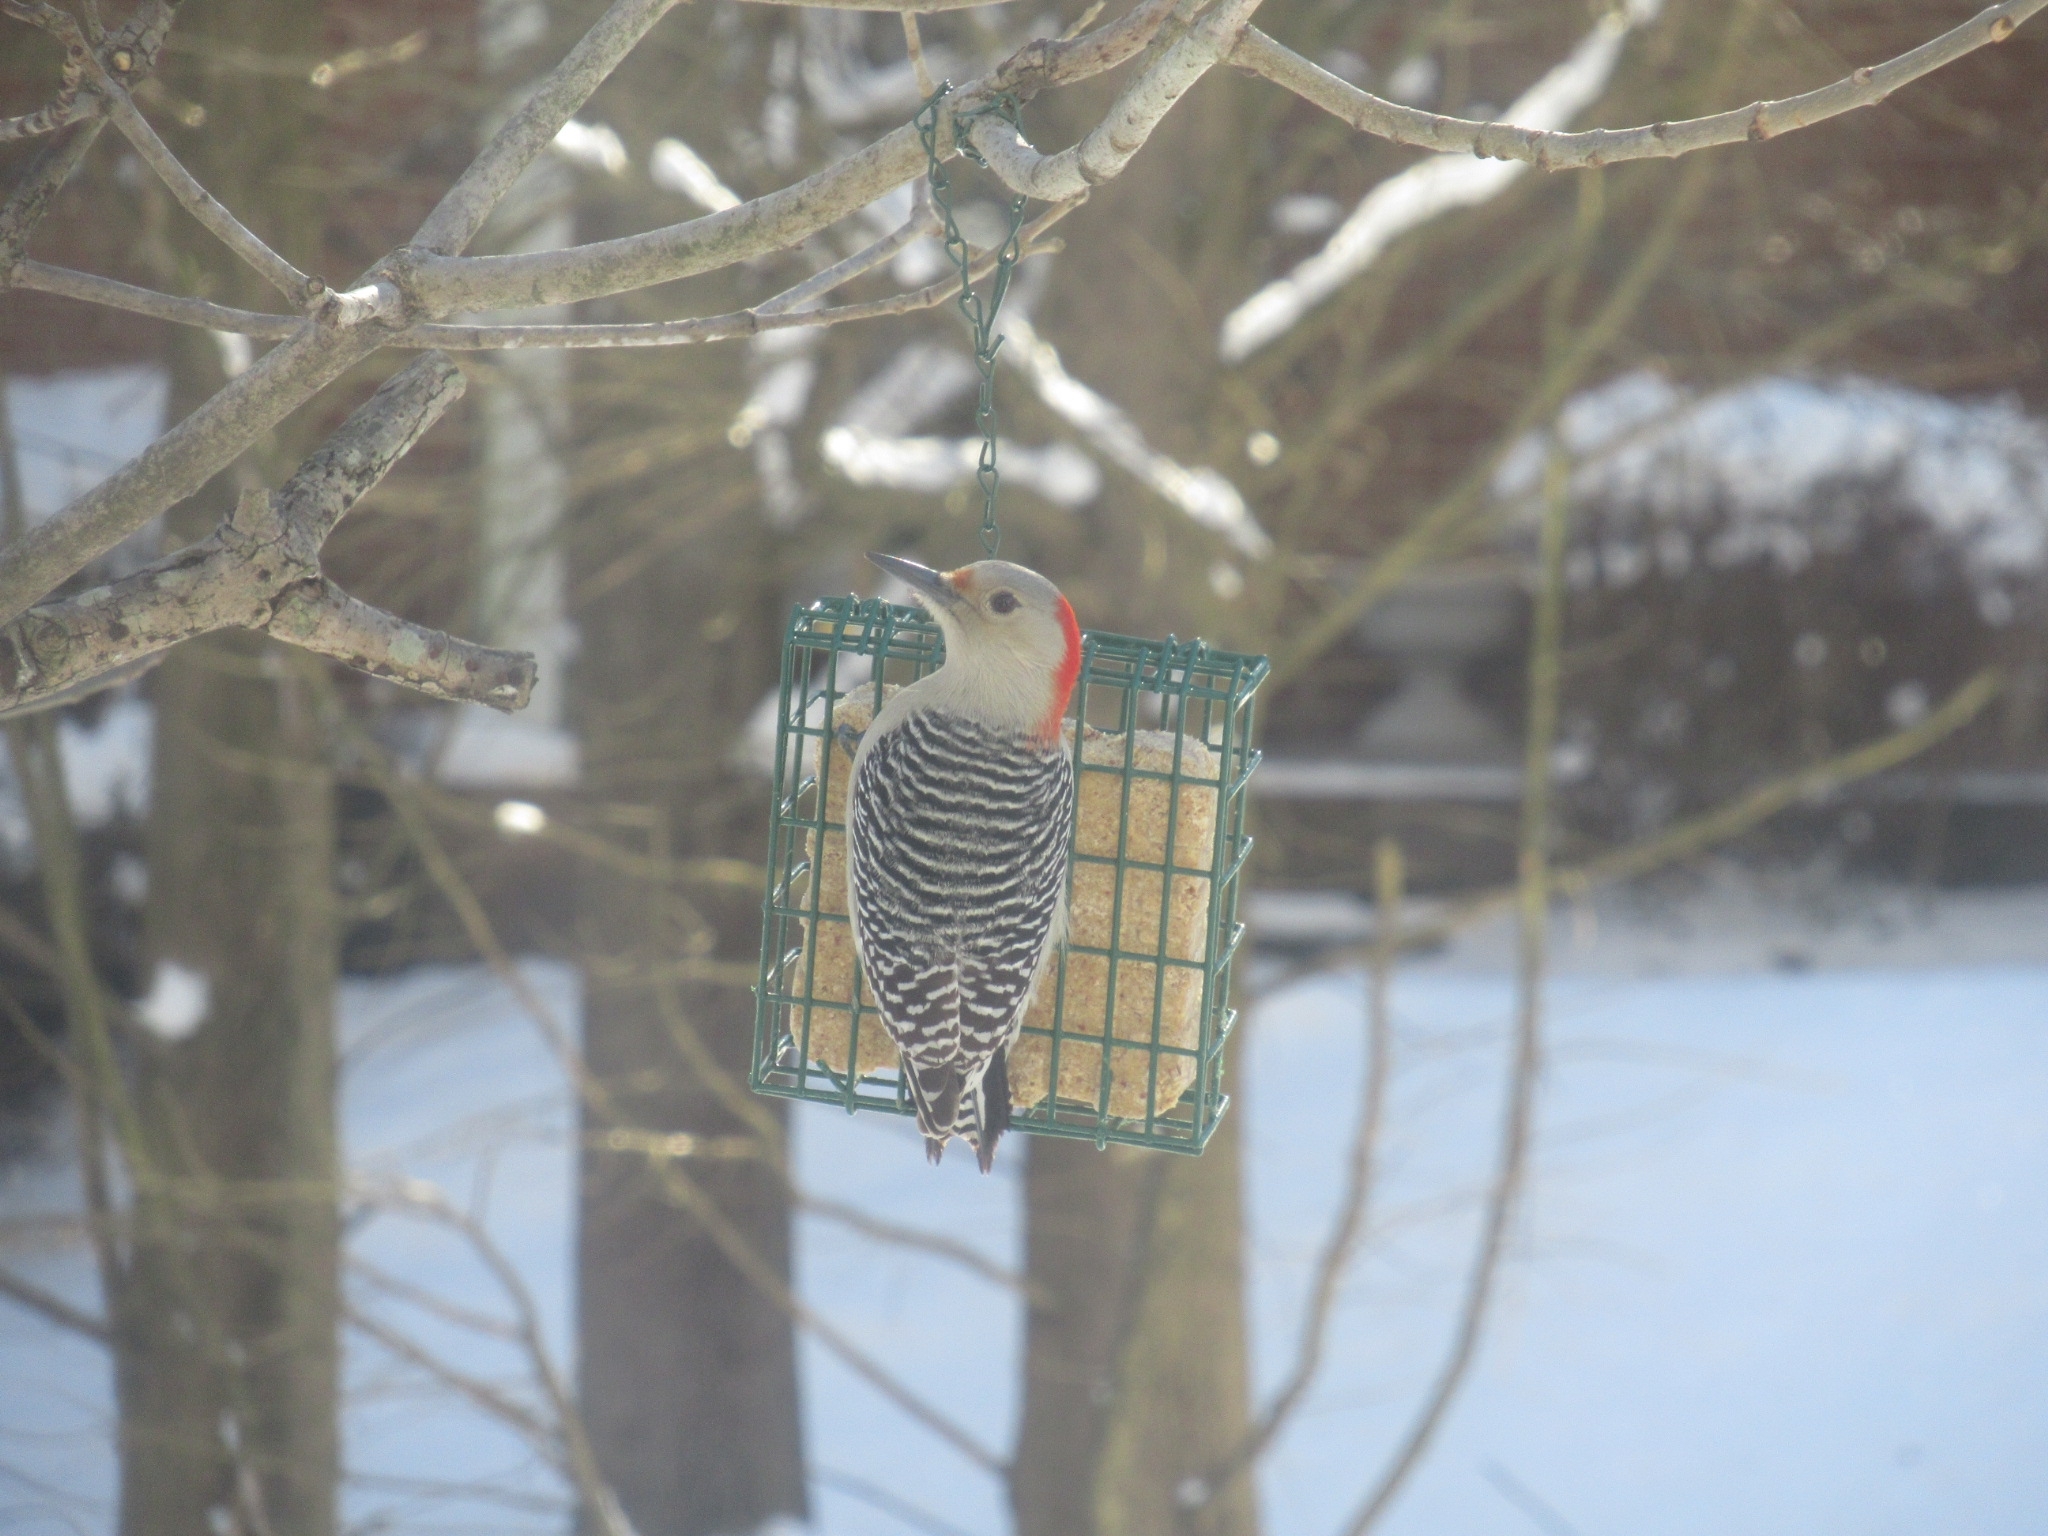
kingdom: Animalia
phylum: Chordata
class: Aves
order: Piciformes
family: Picidae
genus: Melanerpes
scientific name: Melanerpes carolinus
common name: Red-bellied woodpecker
